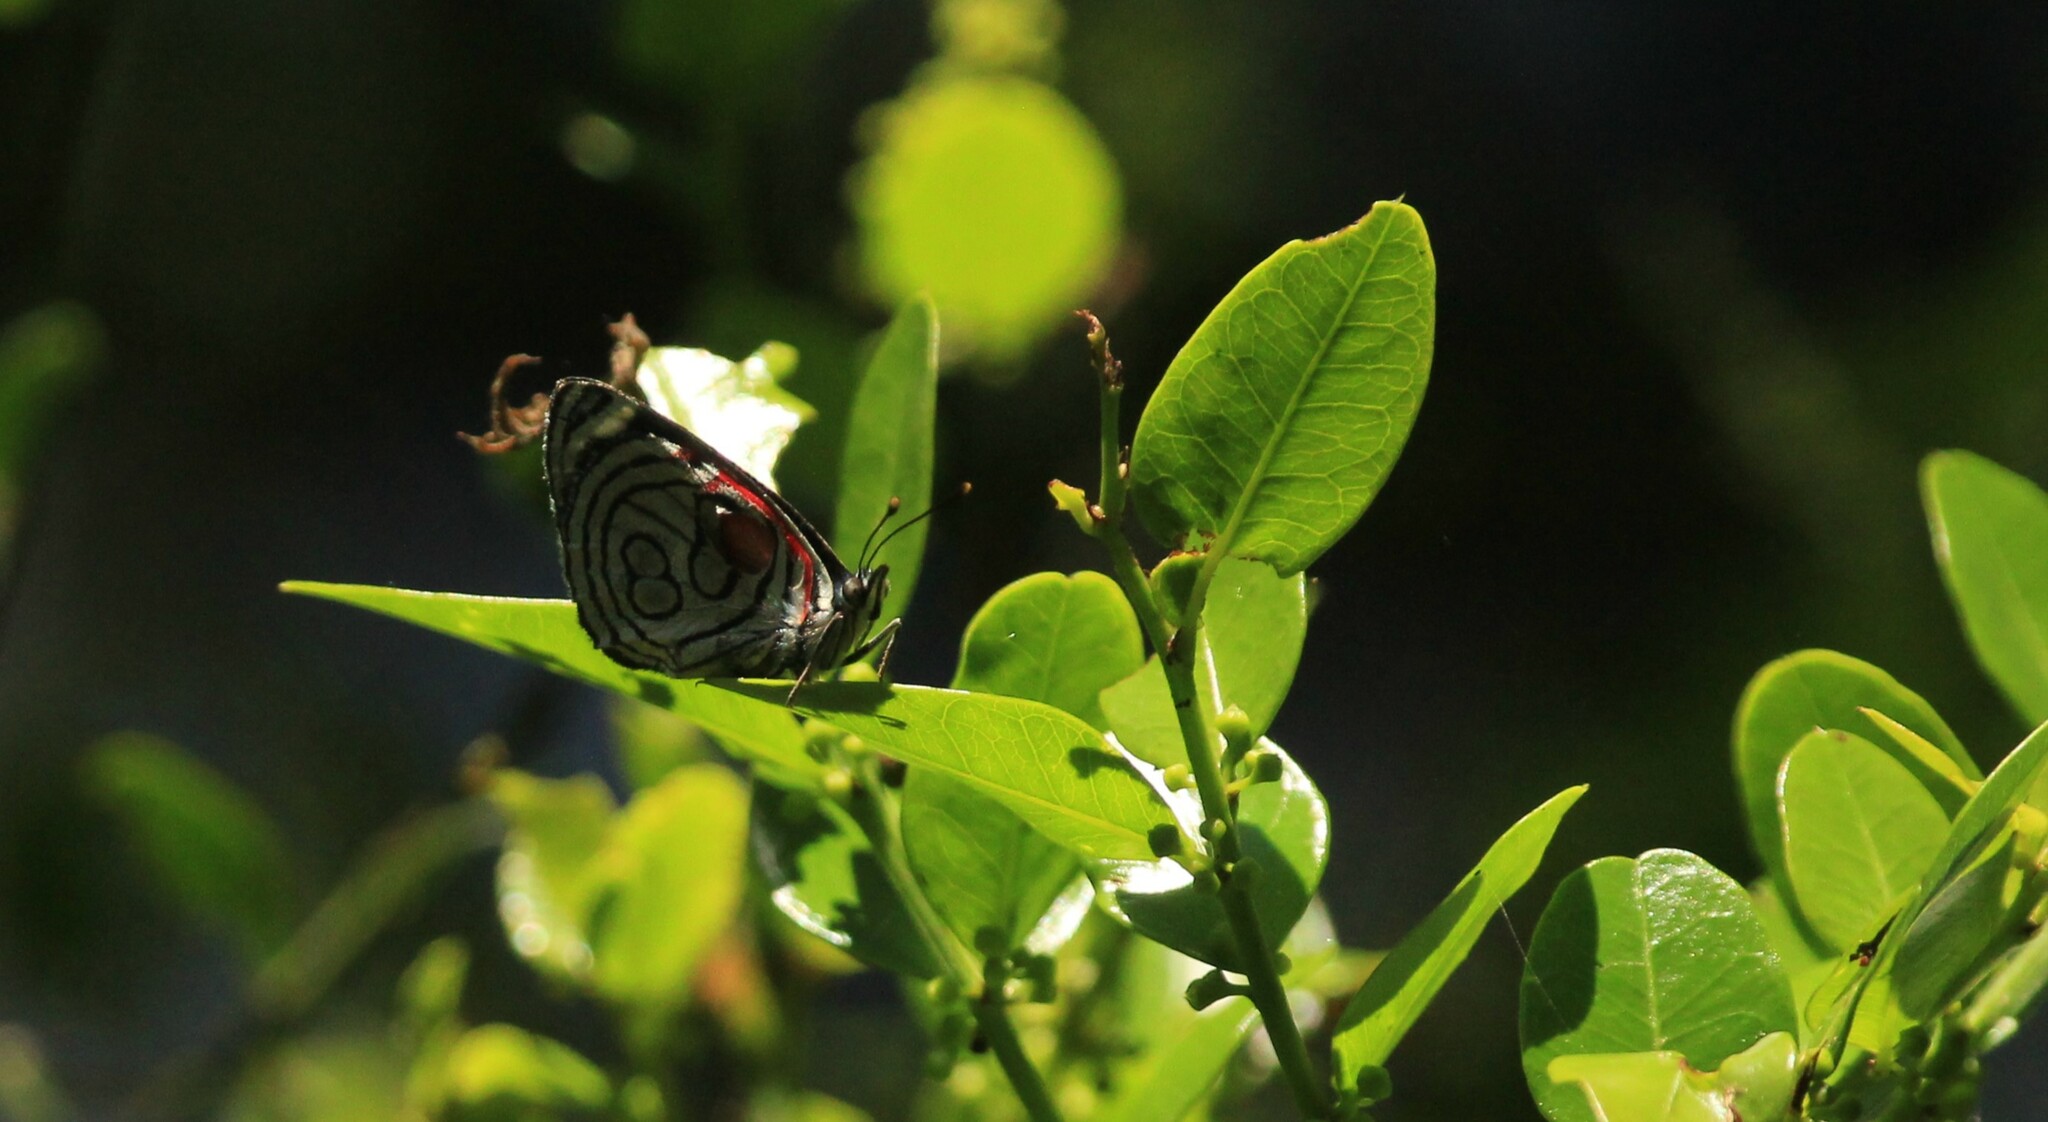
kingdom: Animalia
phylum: Arthropoda
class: Insecta
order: Lepidoptera
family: Nymphalidae
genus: Diaethria
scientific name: Diaethria candrena
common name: Number eighty
